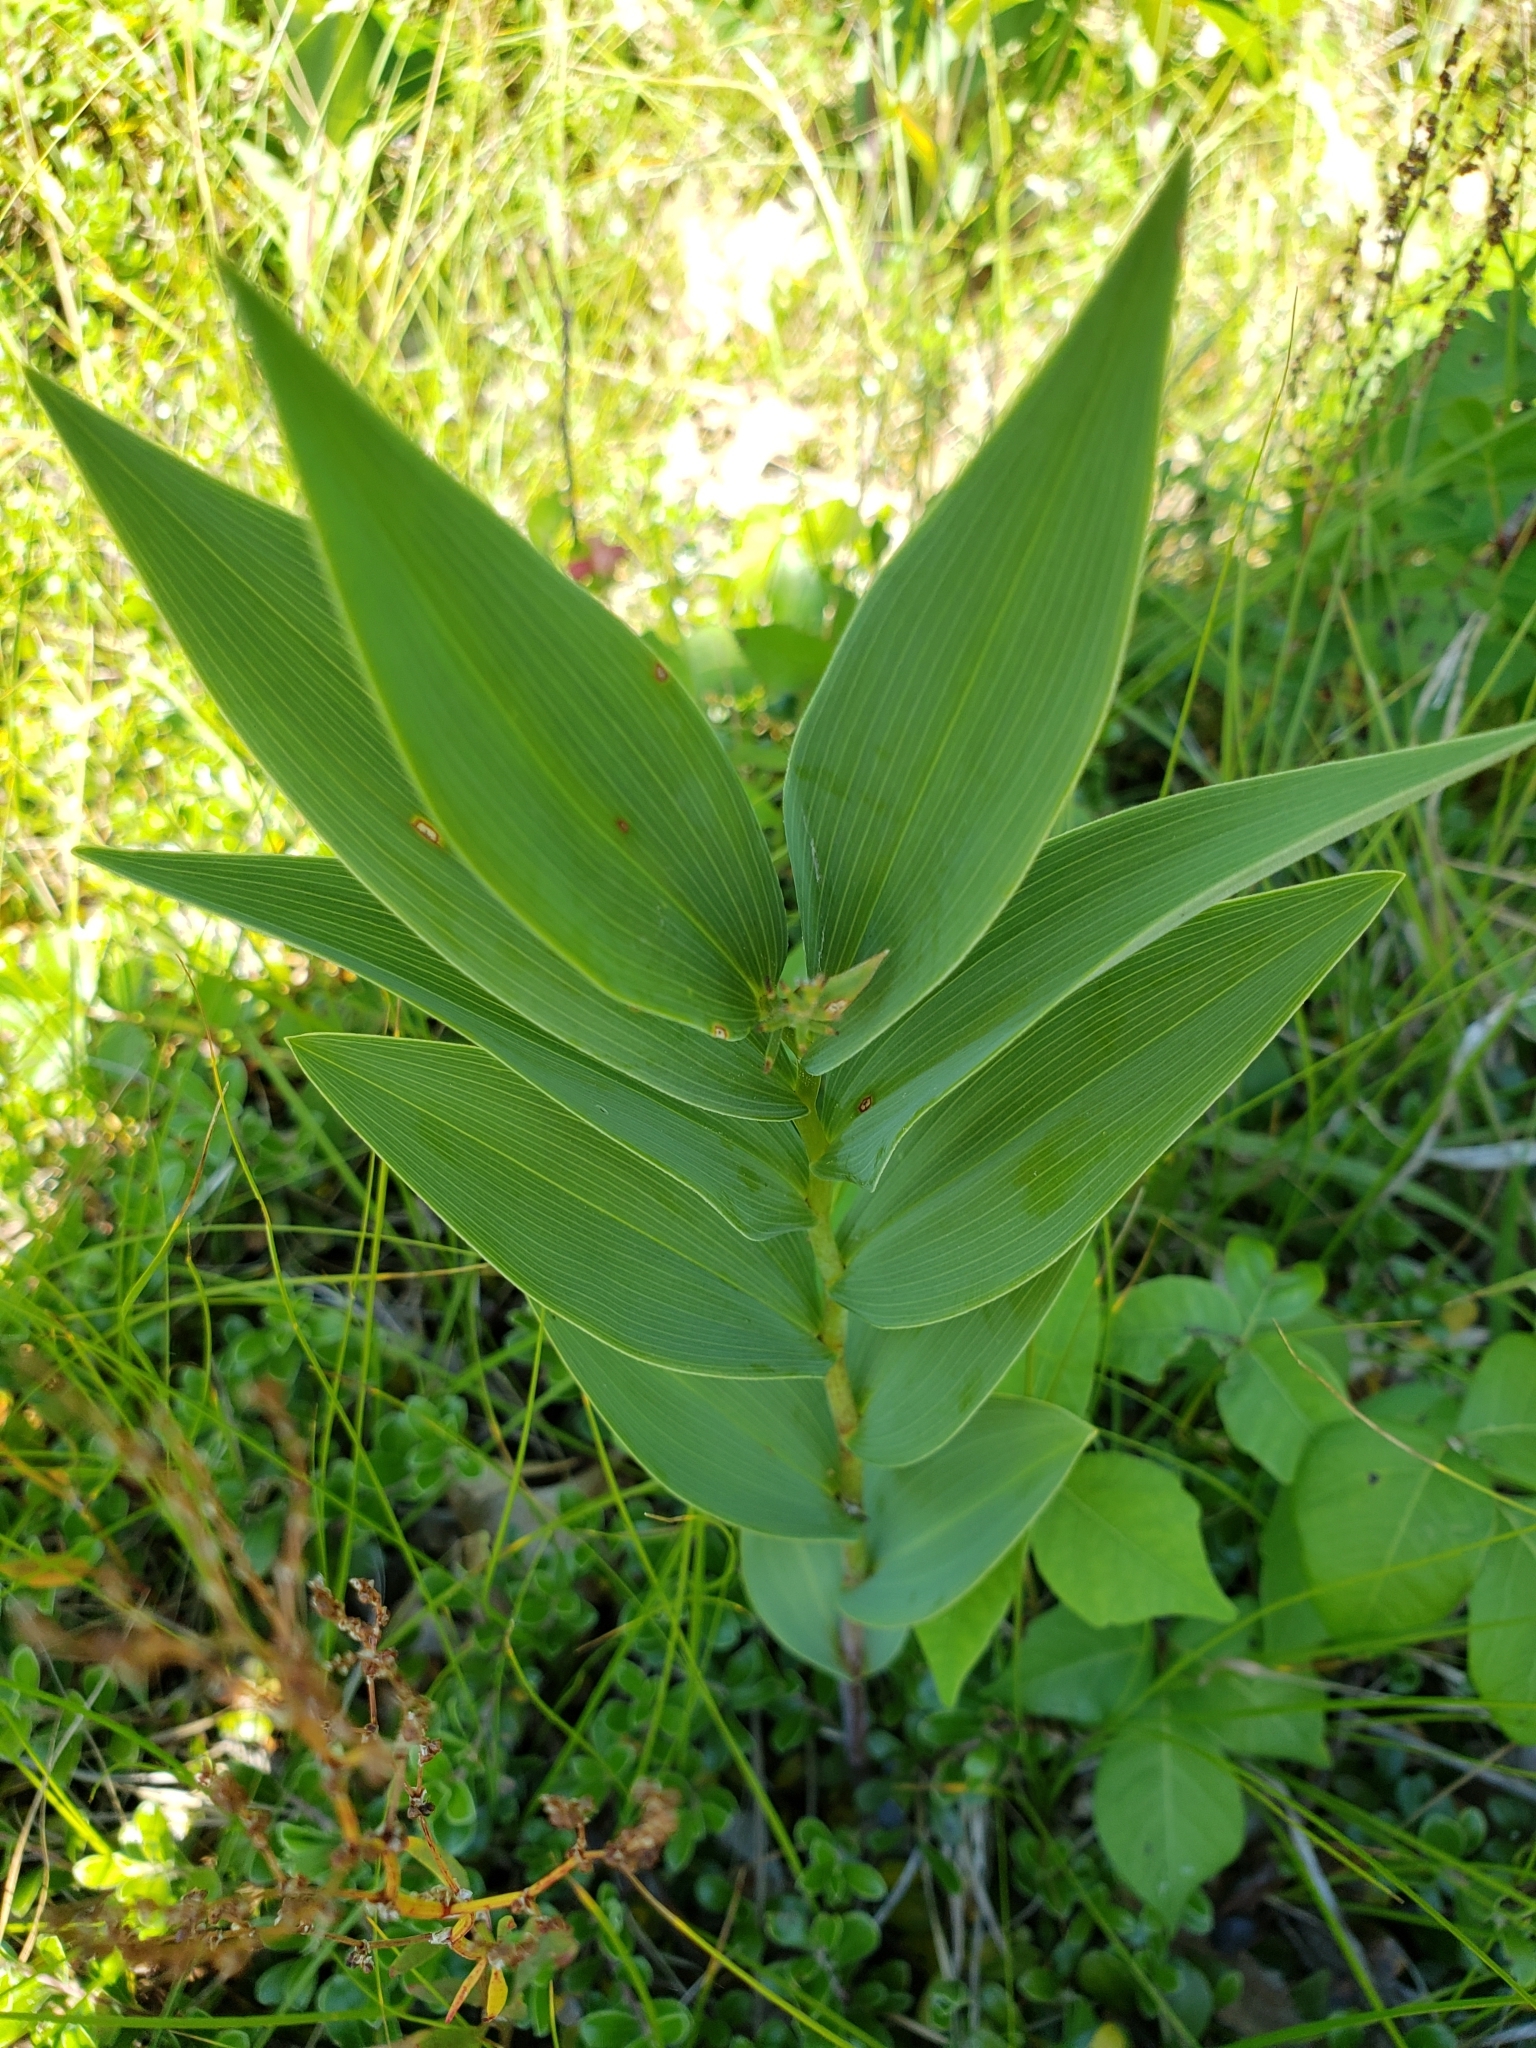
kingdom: Plantae
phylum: Tracheophyta
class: Liliopsida
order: Asparagales
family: Asparagaceae
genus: Maianthemum
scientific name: Maianthemum stellatum
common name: Little false solomon's seal
